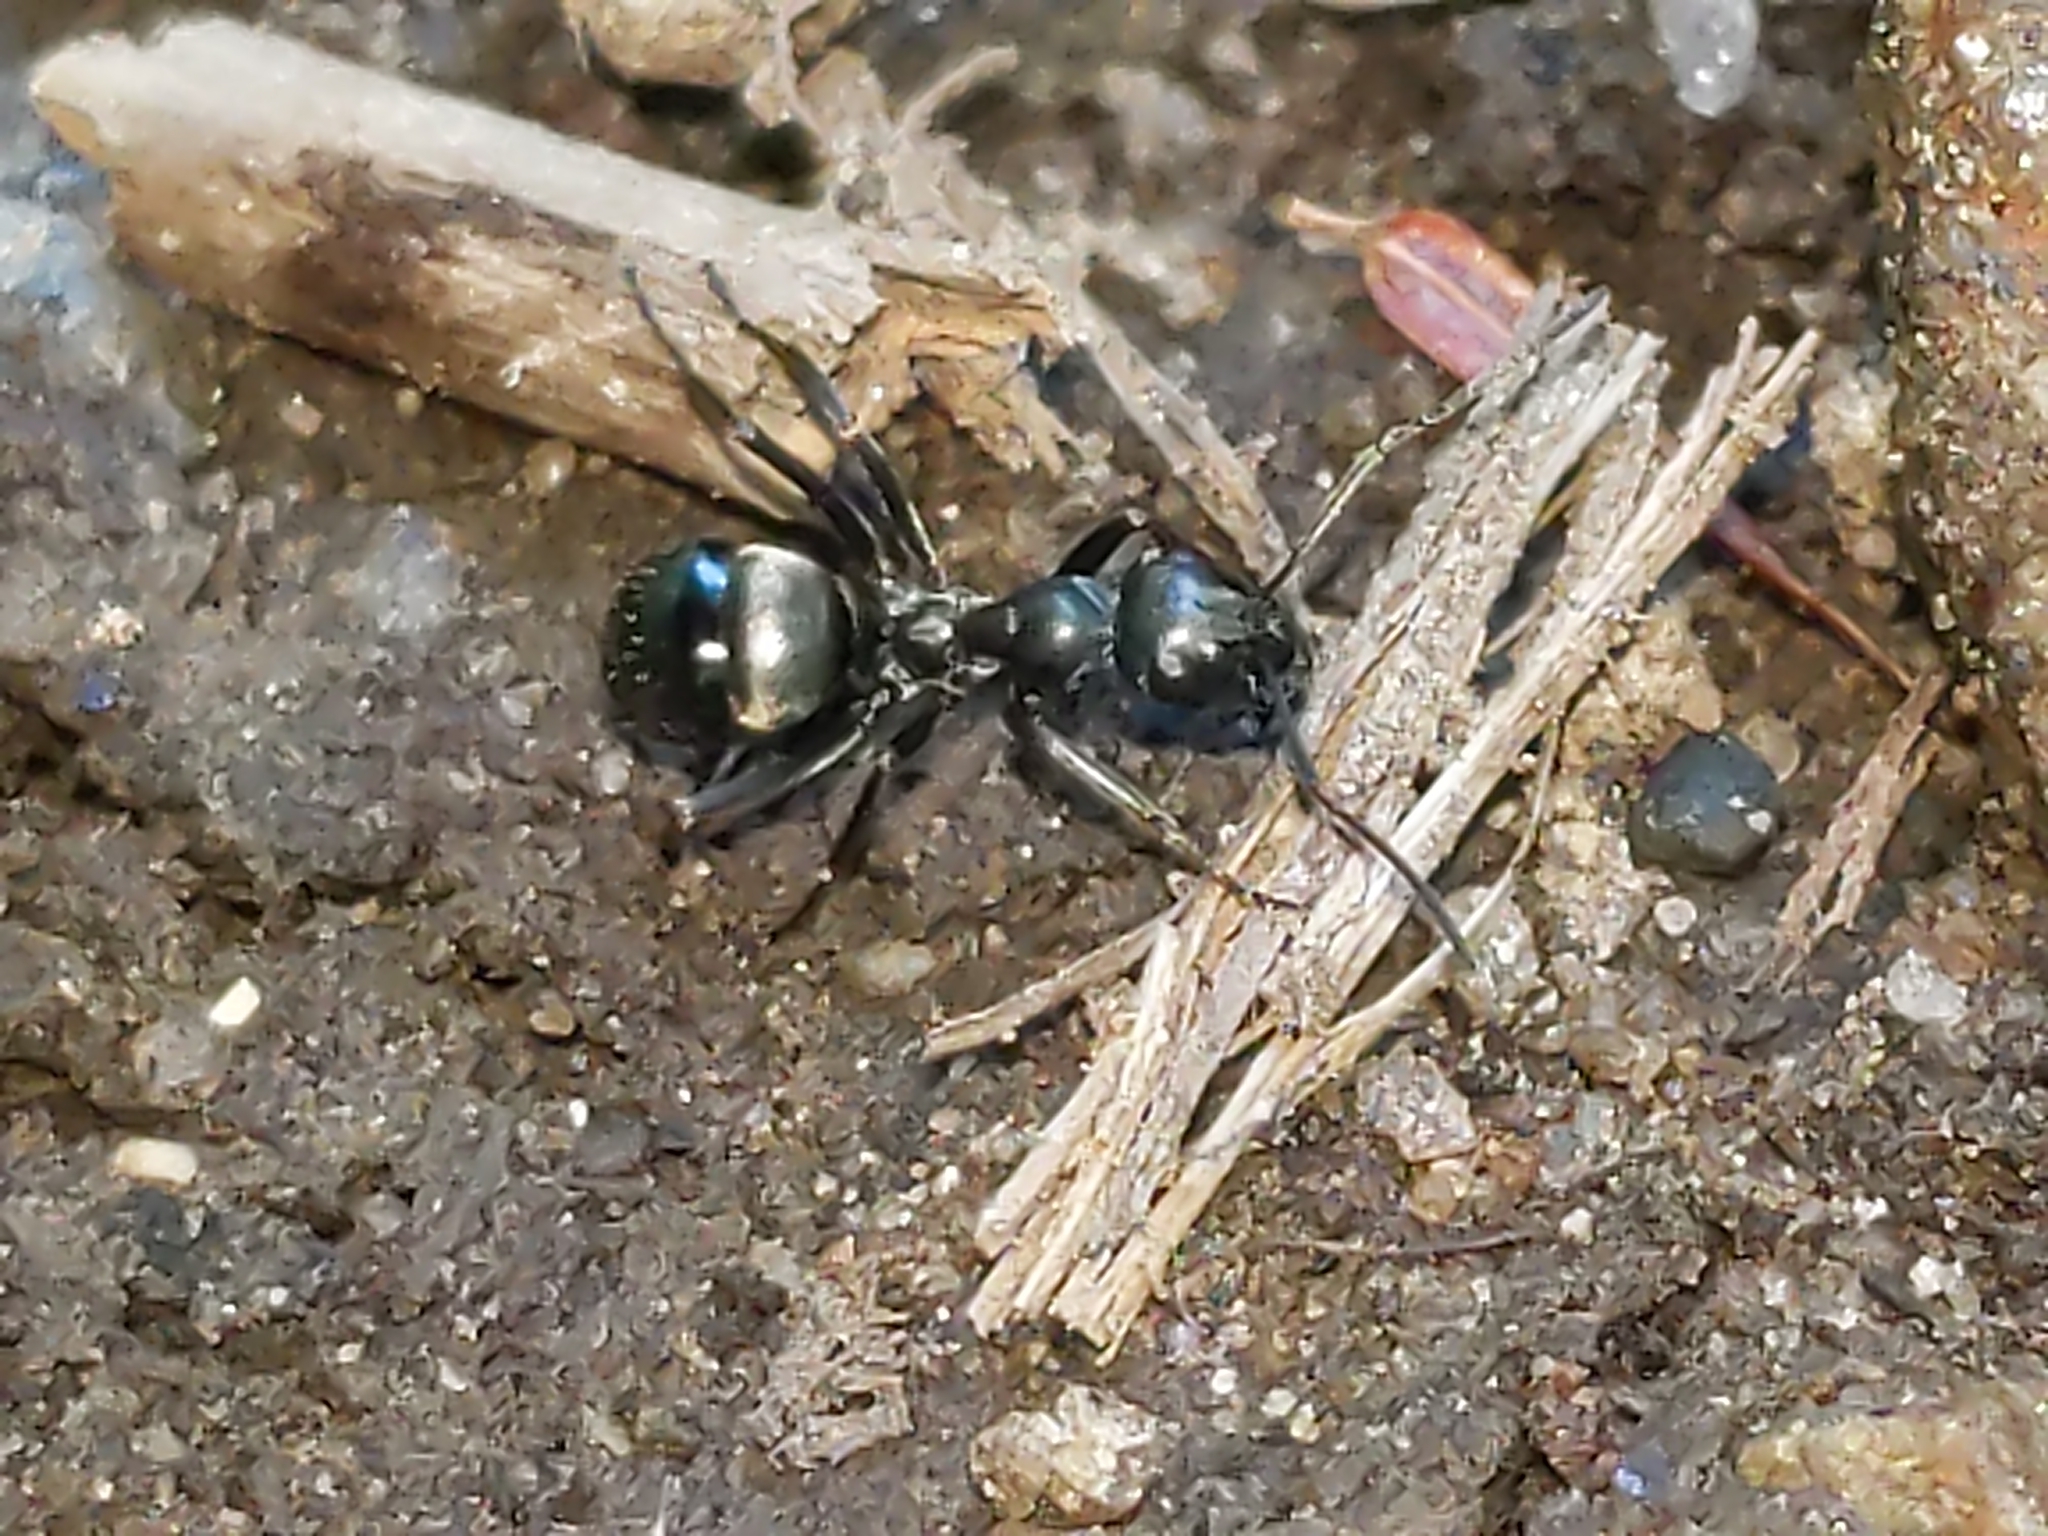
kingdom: Animalia
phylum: Arthropoda
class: Insecta
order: Hymenoptera
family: Formicidae
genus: Formica
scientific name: Formica
